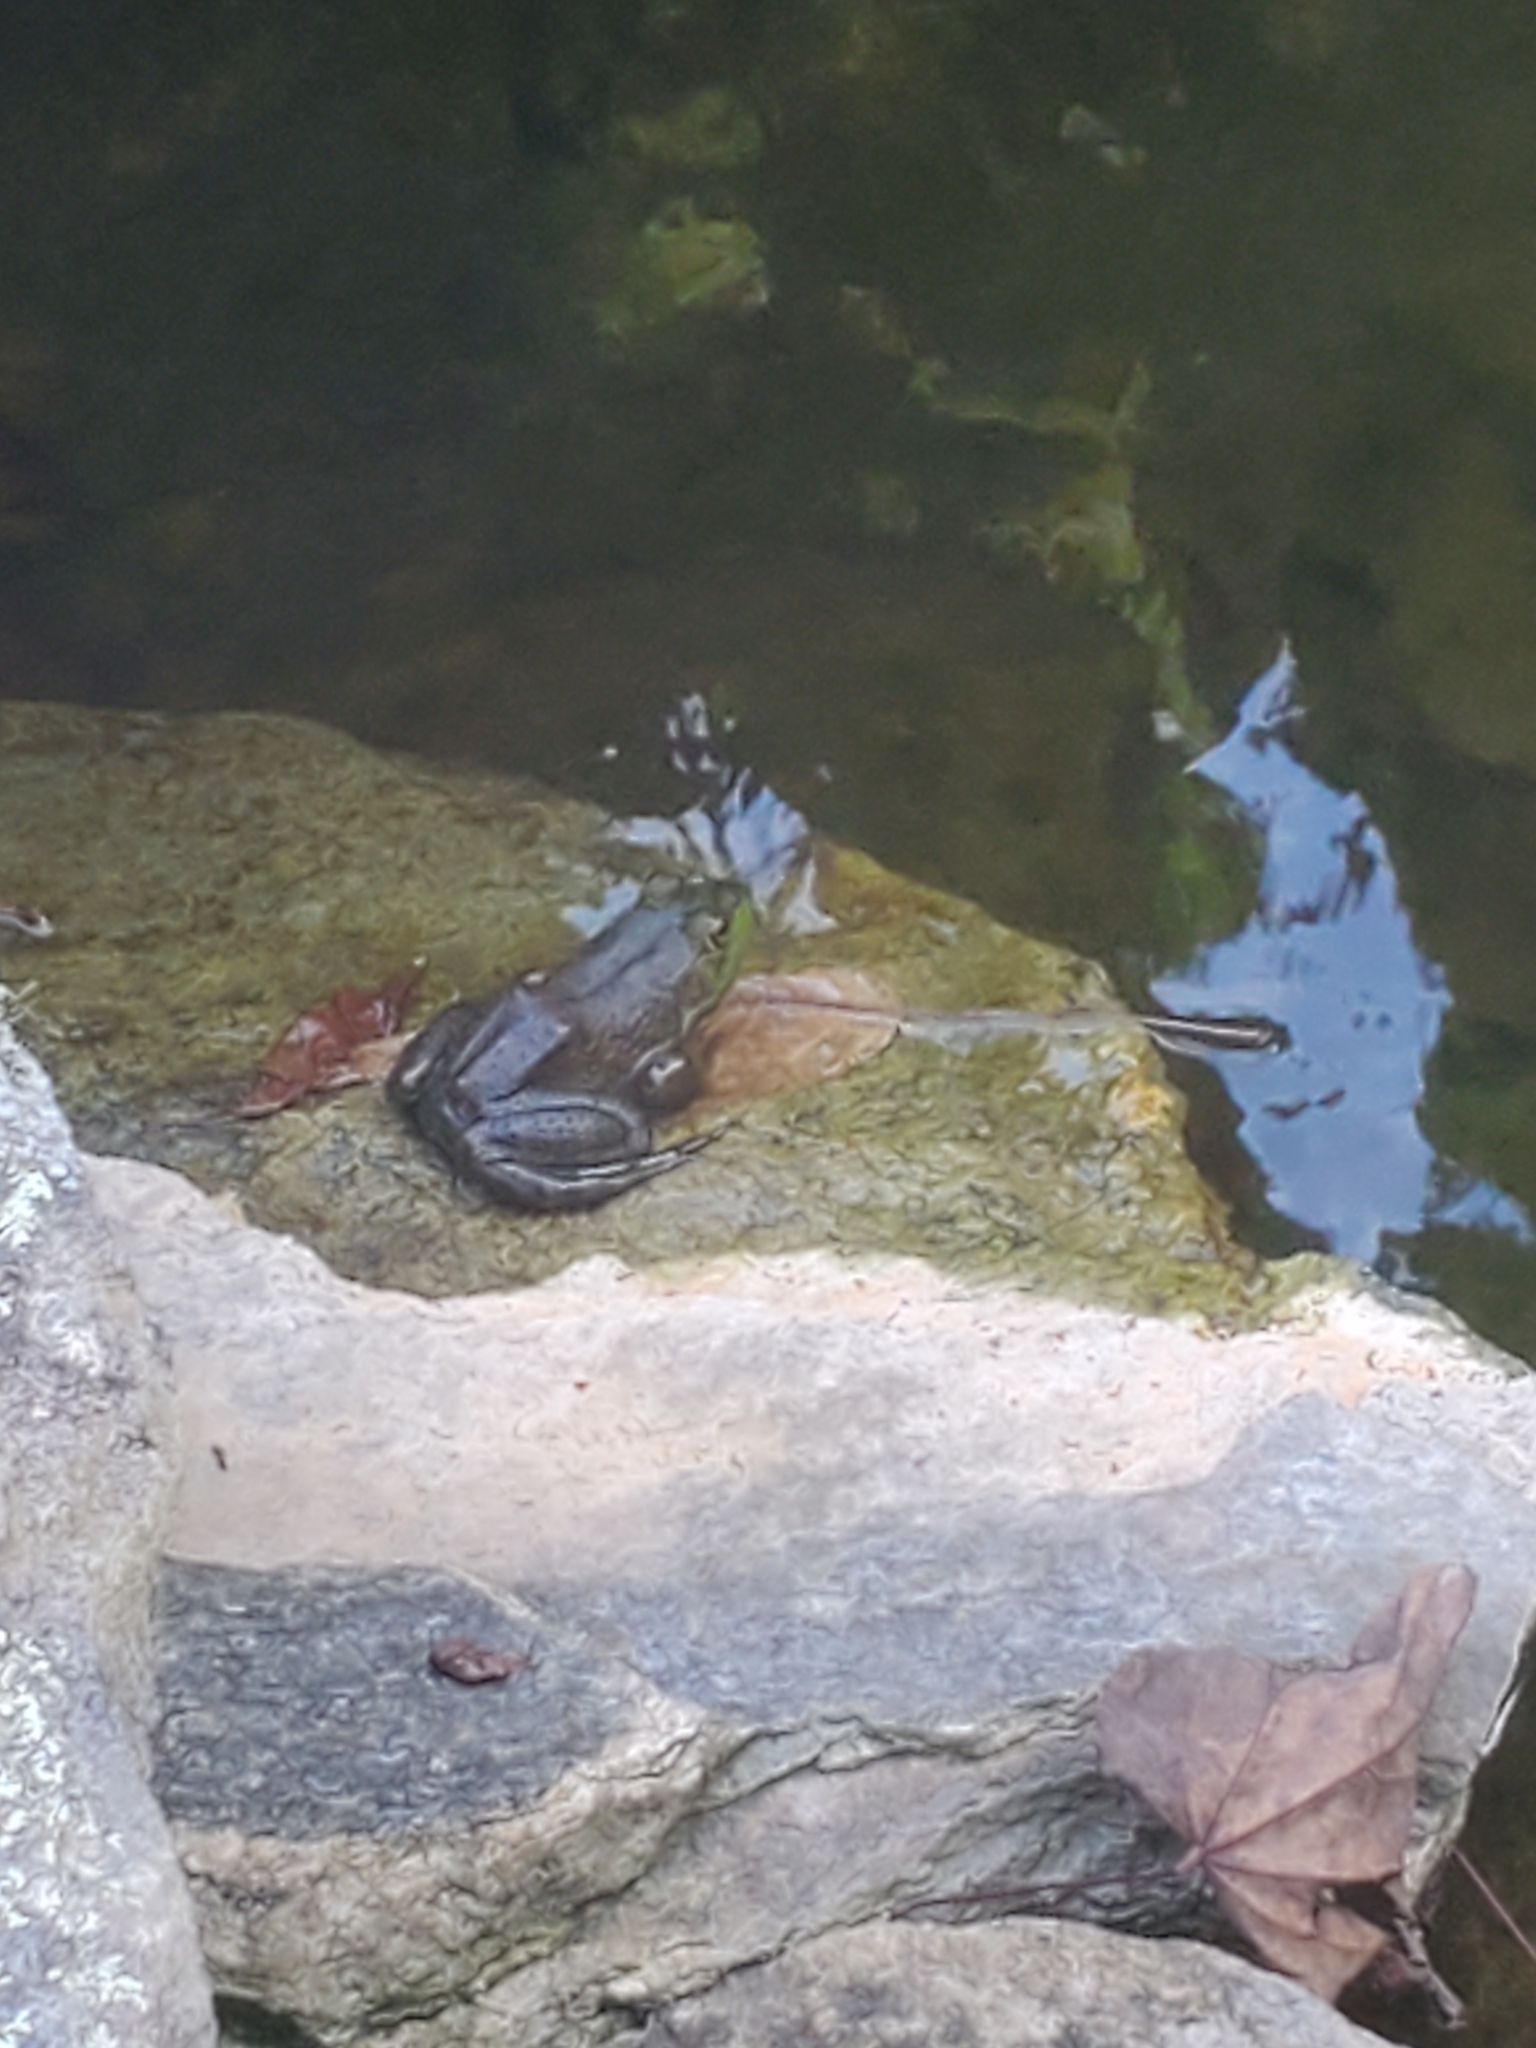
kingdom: Animalia
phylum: Chordata
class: Amphibia
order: Anura
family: Ranidae
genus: Lithobates
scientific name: Lithobates catesbeianus
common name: American bullfrog
